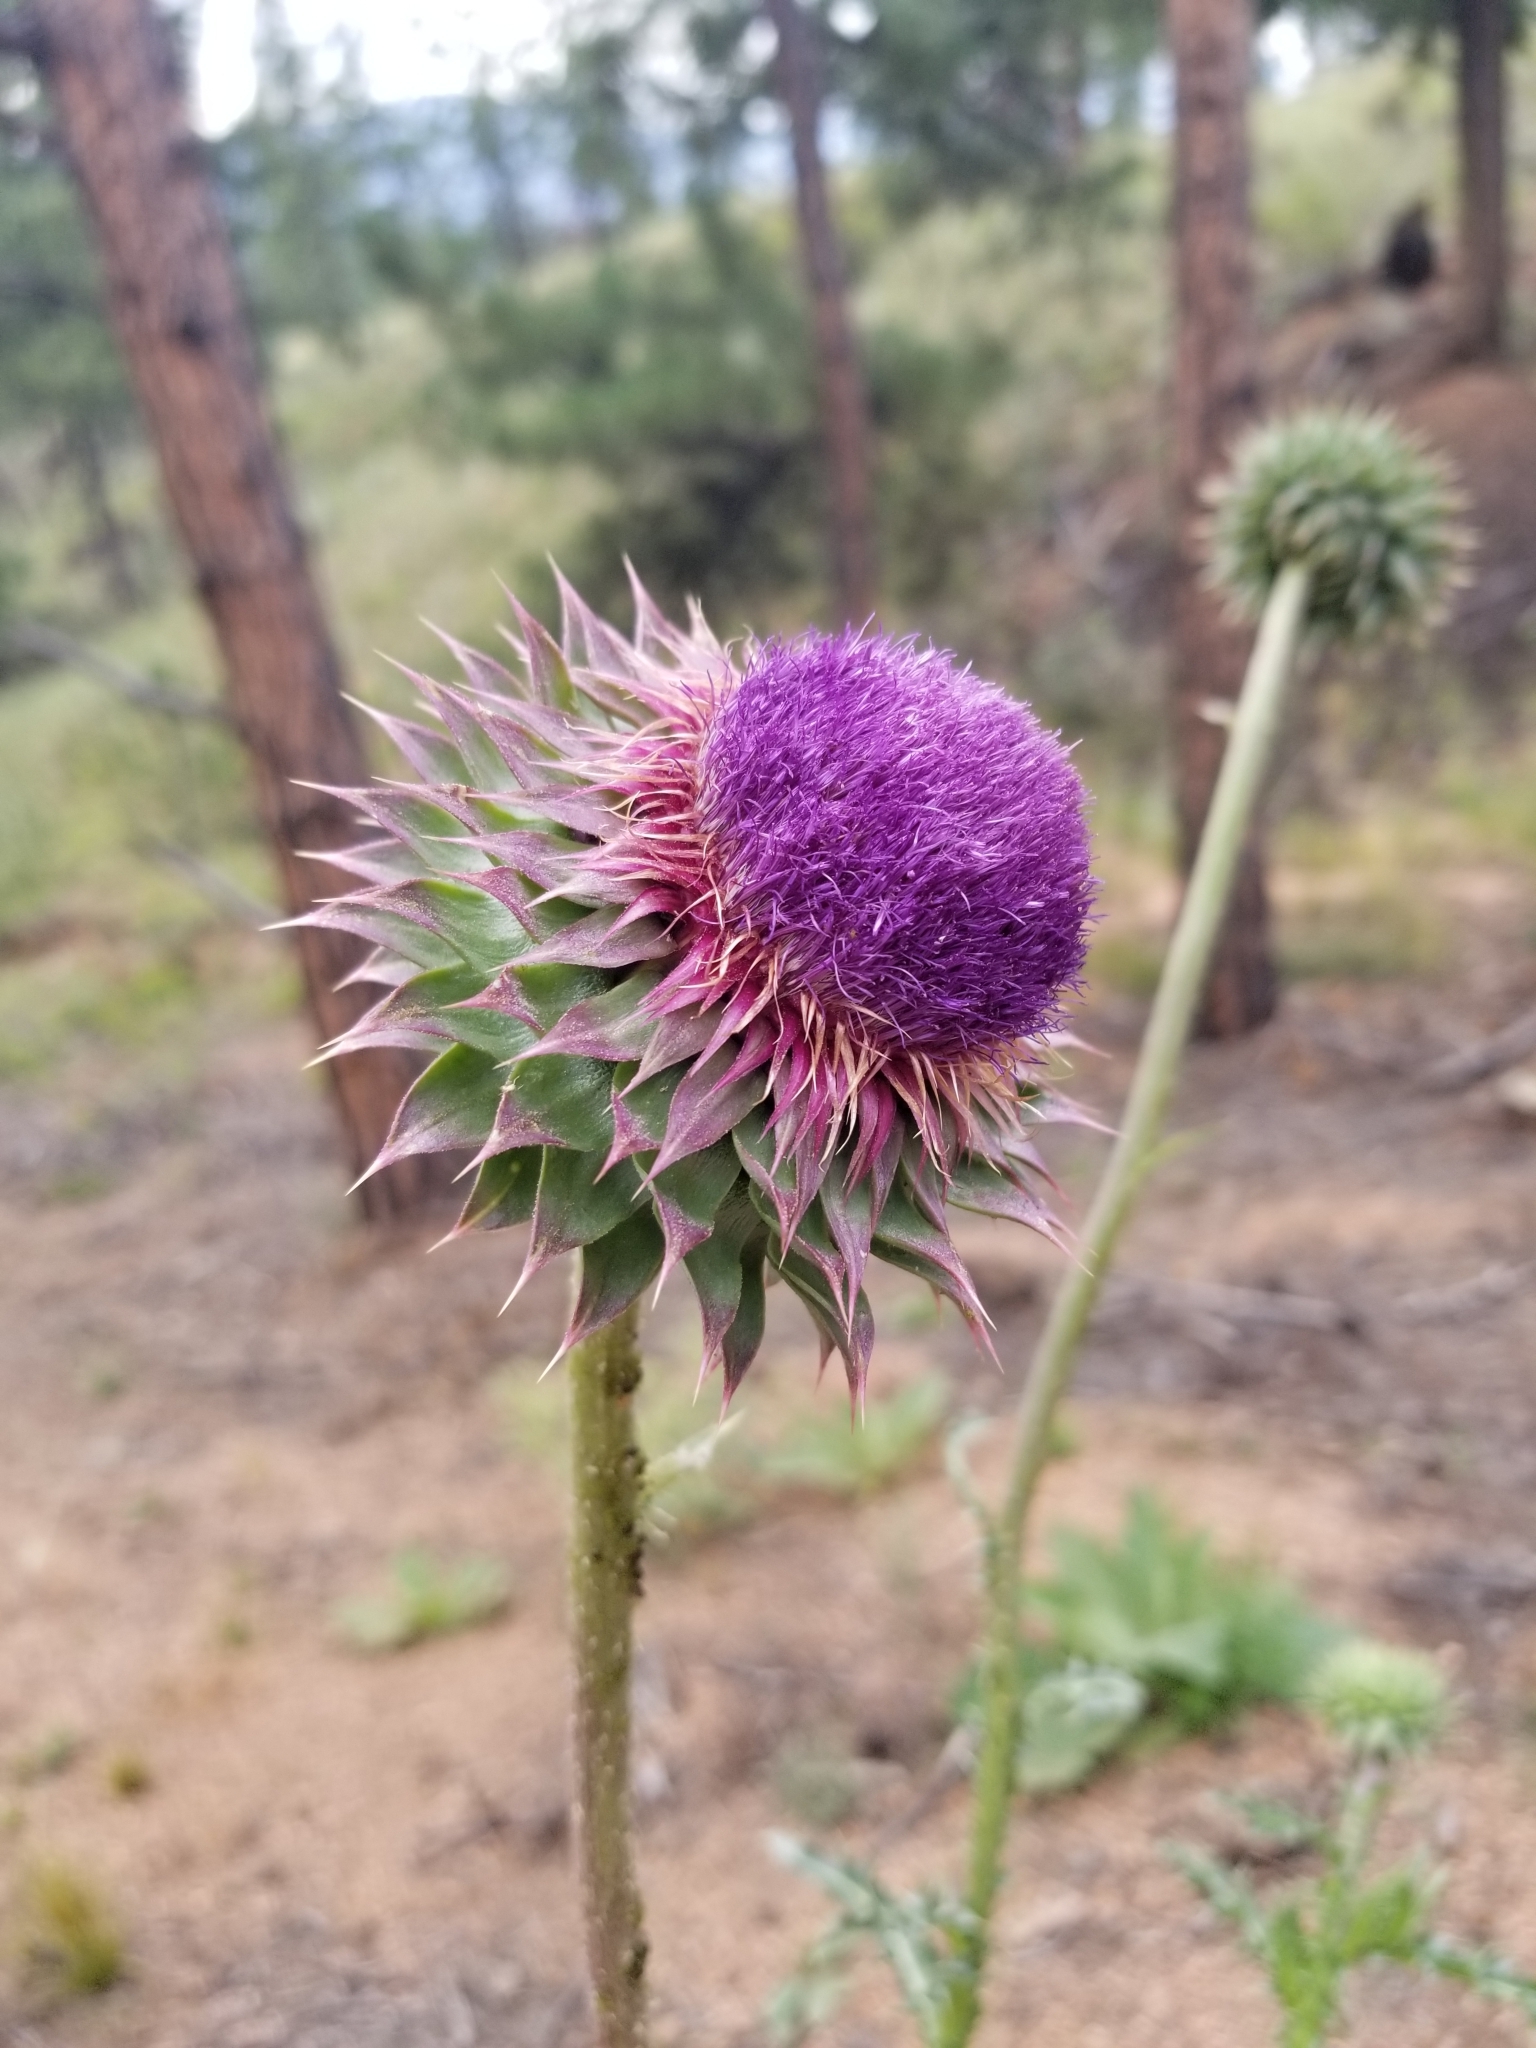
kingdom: Plantae
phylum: Tracheophyta
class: Magnoliopsida
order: Asterales
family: Asteraceae
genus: Carduus
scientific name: Carduus nutans
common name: Musk thistle
